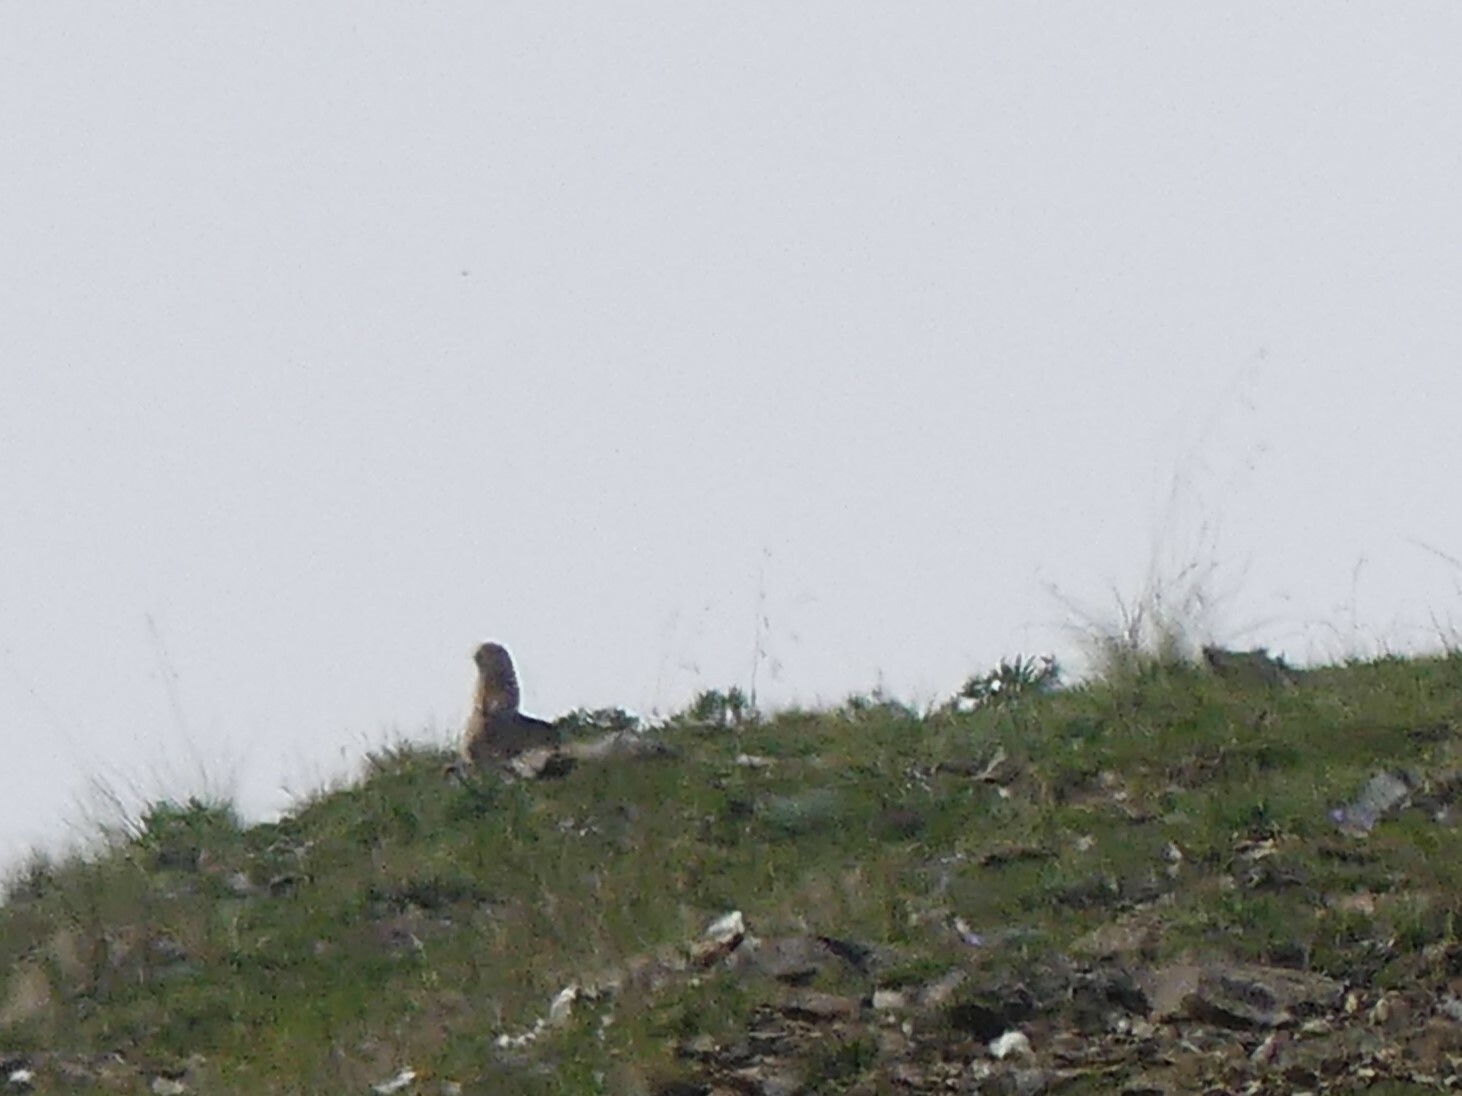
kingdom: Animalia
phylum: Chordata
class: Mammalia
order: Rodentia
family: Sciuridae
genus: Urocitellus
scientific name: Urocitellus parryii
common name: Arctic ground squirrel
